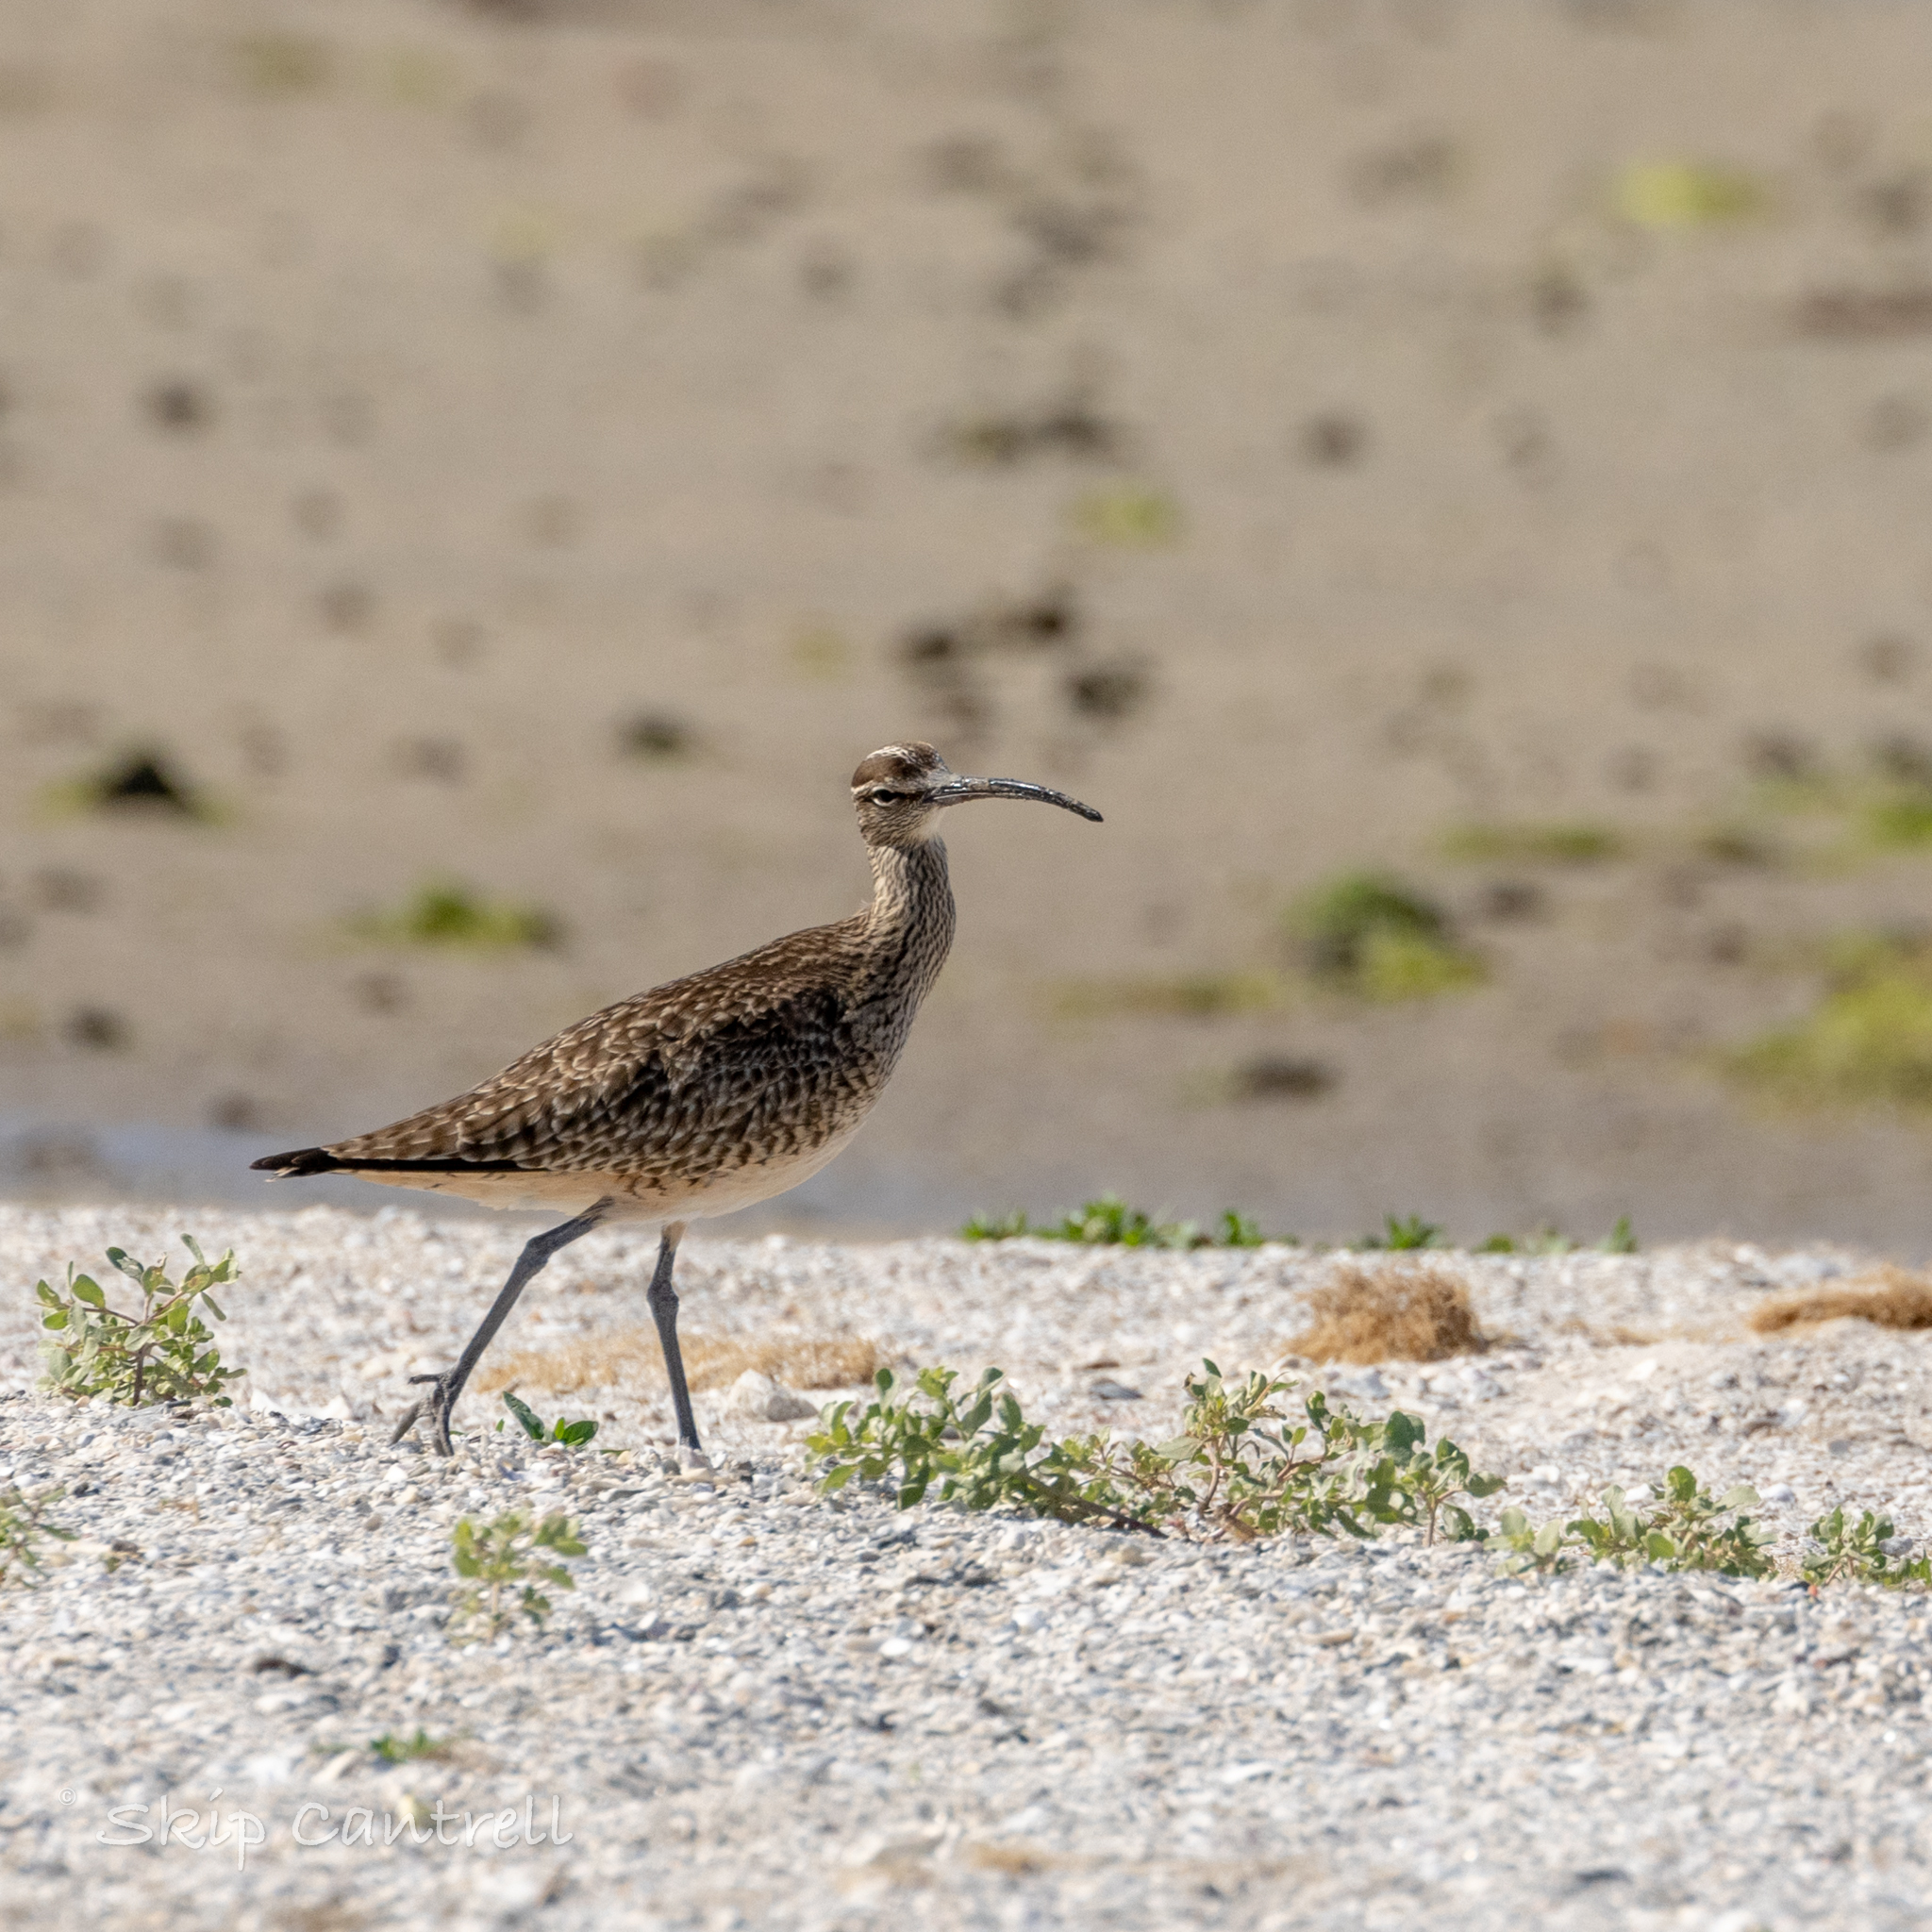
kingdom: Animalia
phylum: Chordata
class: Aves
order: Charadriiformes
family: Scolopacidae
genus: Numenius
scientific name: Numenius phaeopus
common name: Whimbrel
